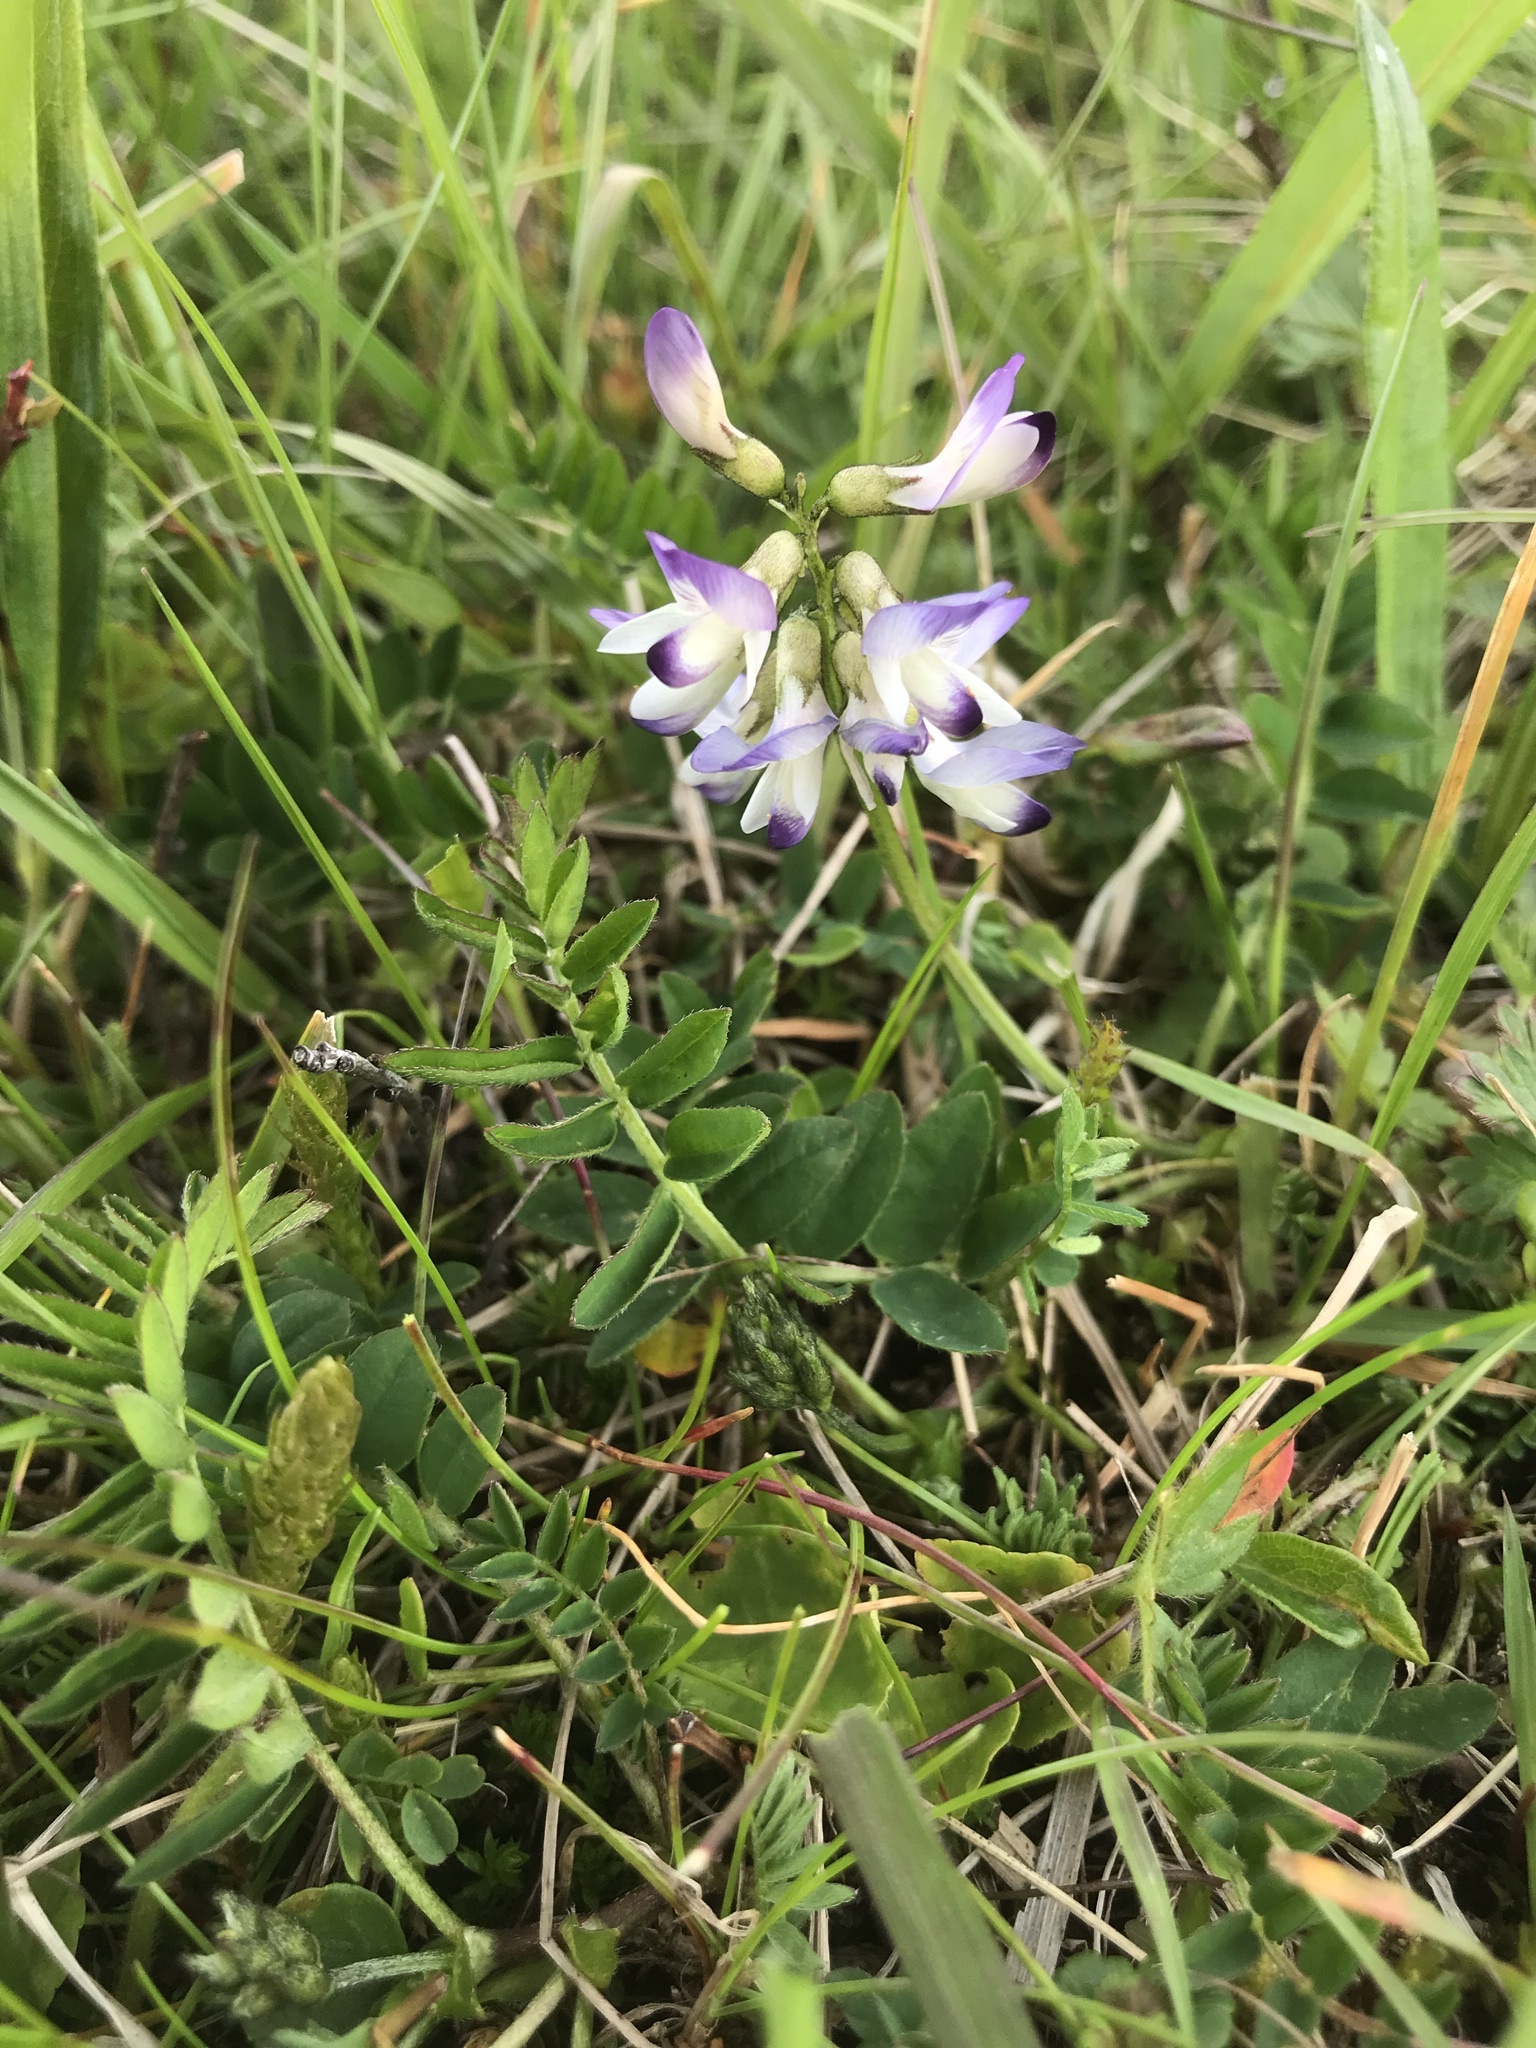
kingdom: Plantae
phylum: Tracheophyta
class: Magnoliopsida
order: Fabales
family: Fabaceae
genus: Astragalus
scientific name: Astragalus alpinus
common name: Alpine milk-vetch
